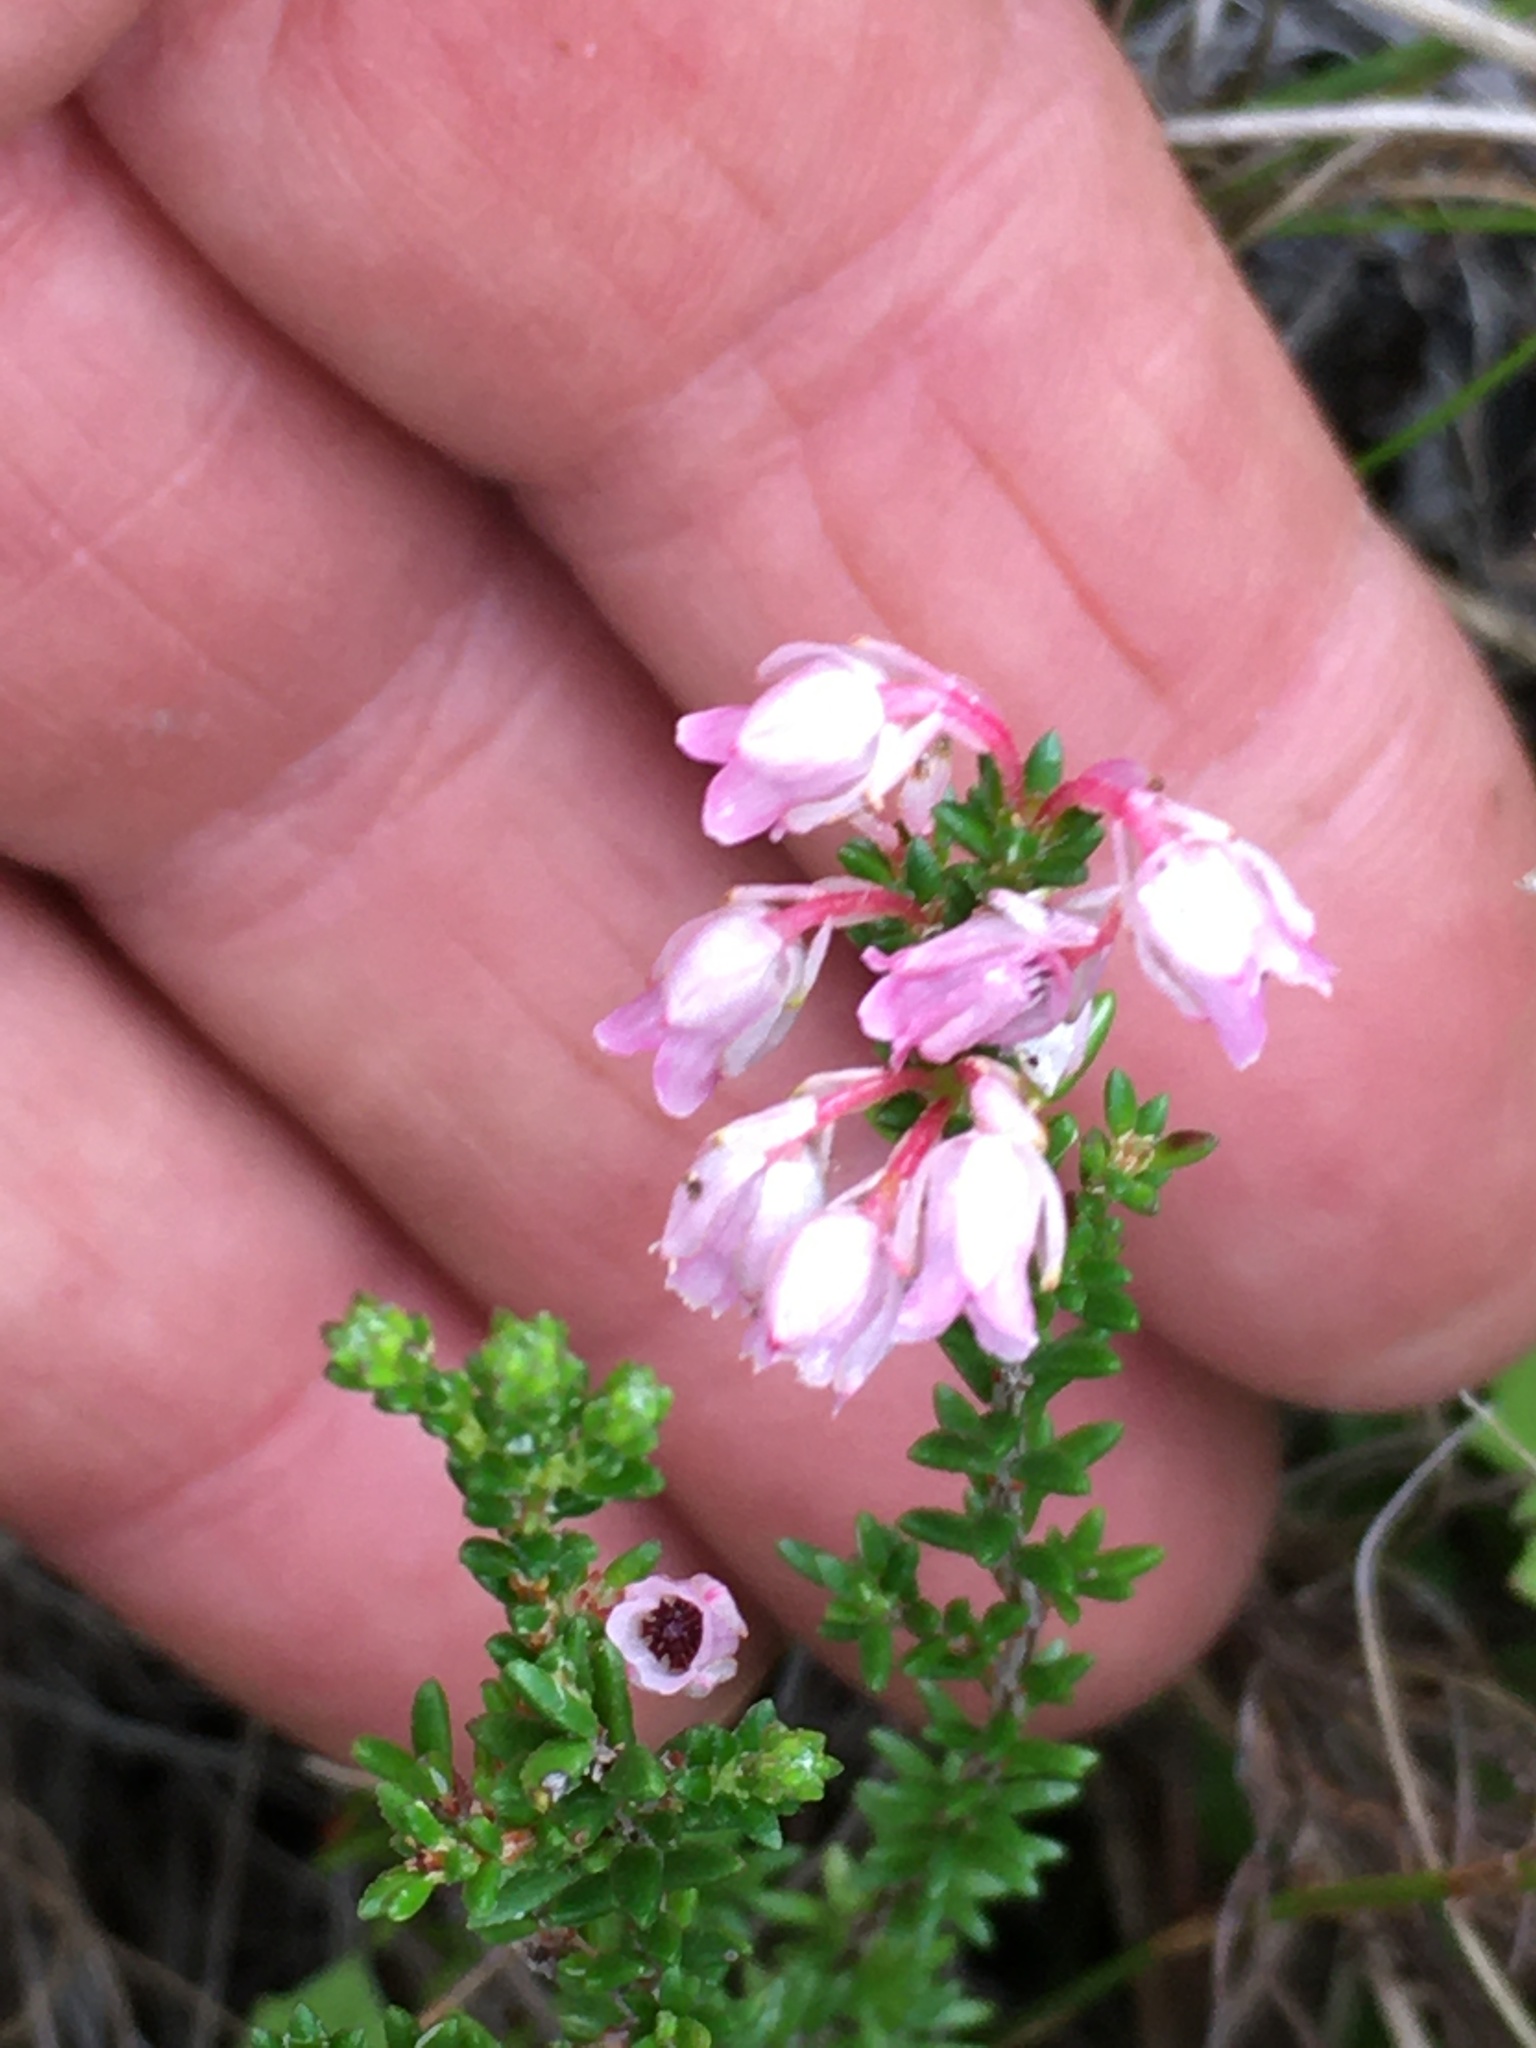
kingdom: Plantae
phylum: Tracheophyta
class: Magnoliopsida
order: Ericales
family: Ericaceae
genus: Erica
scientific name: Erica brevifolia
